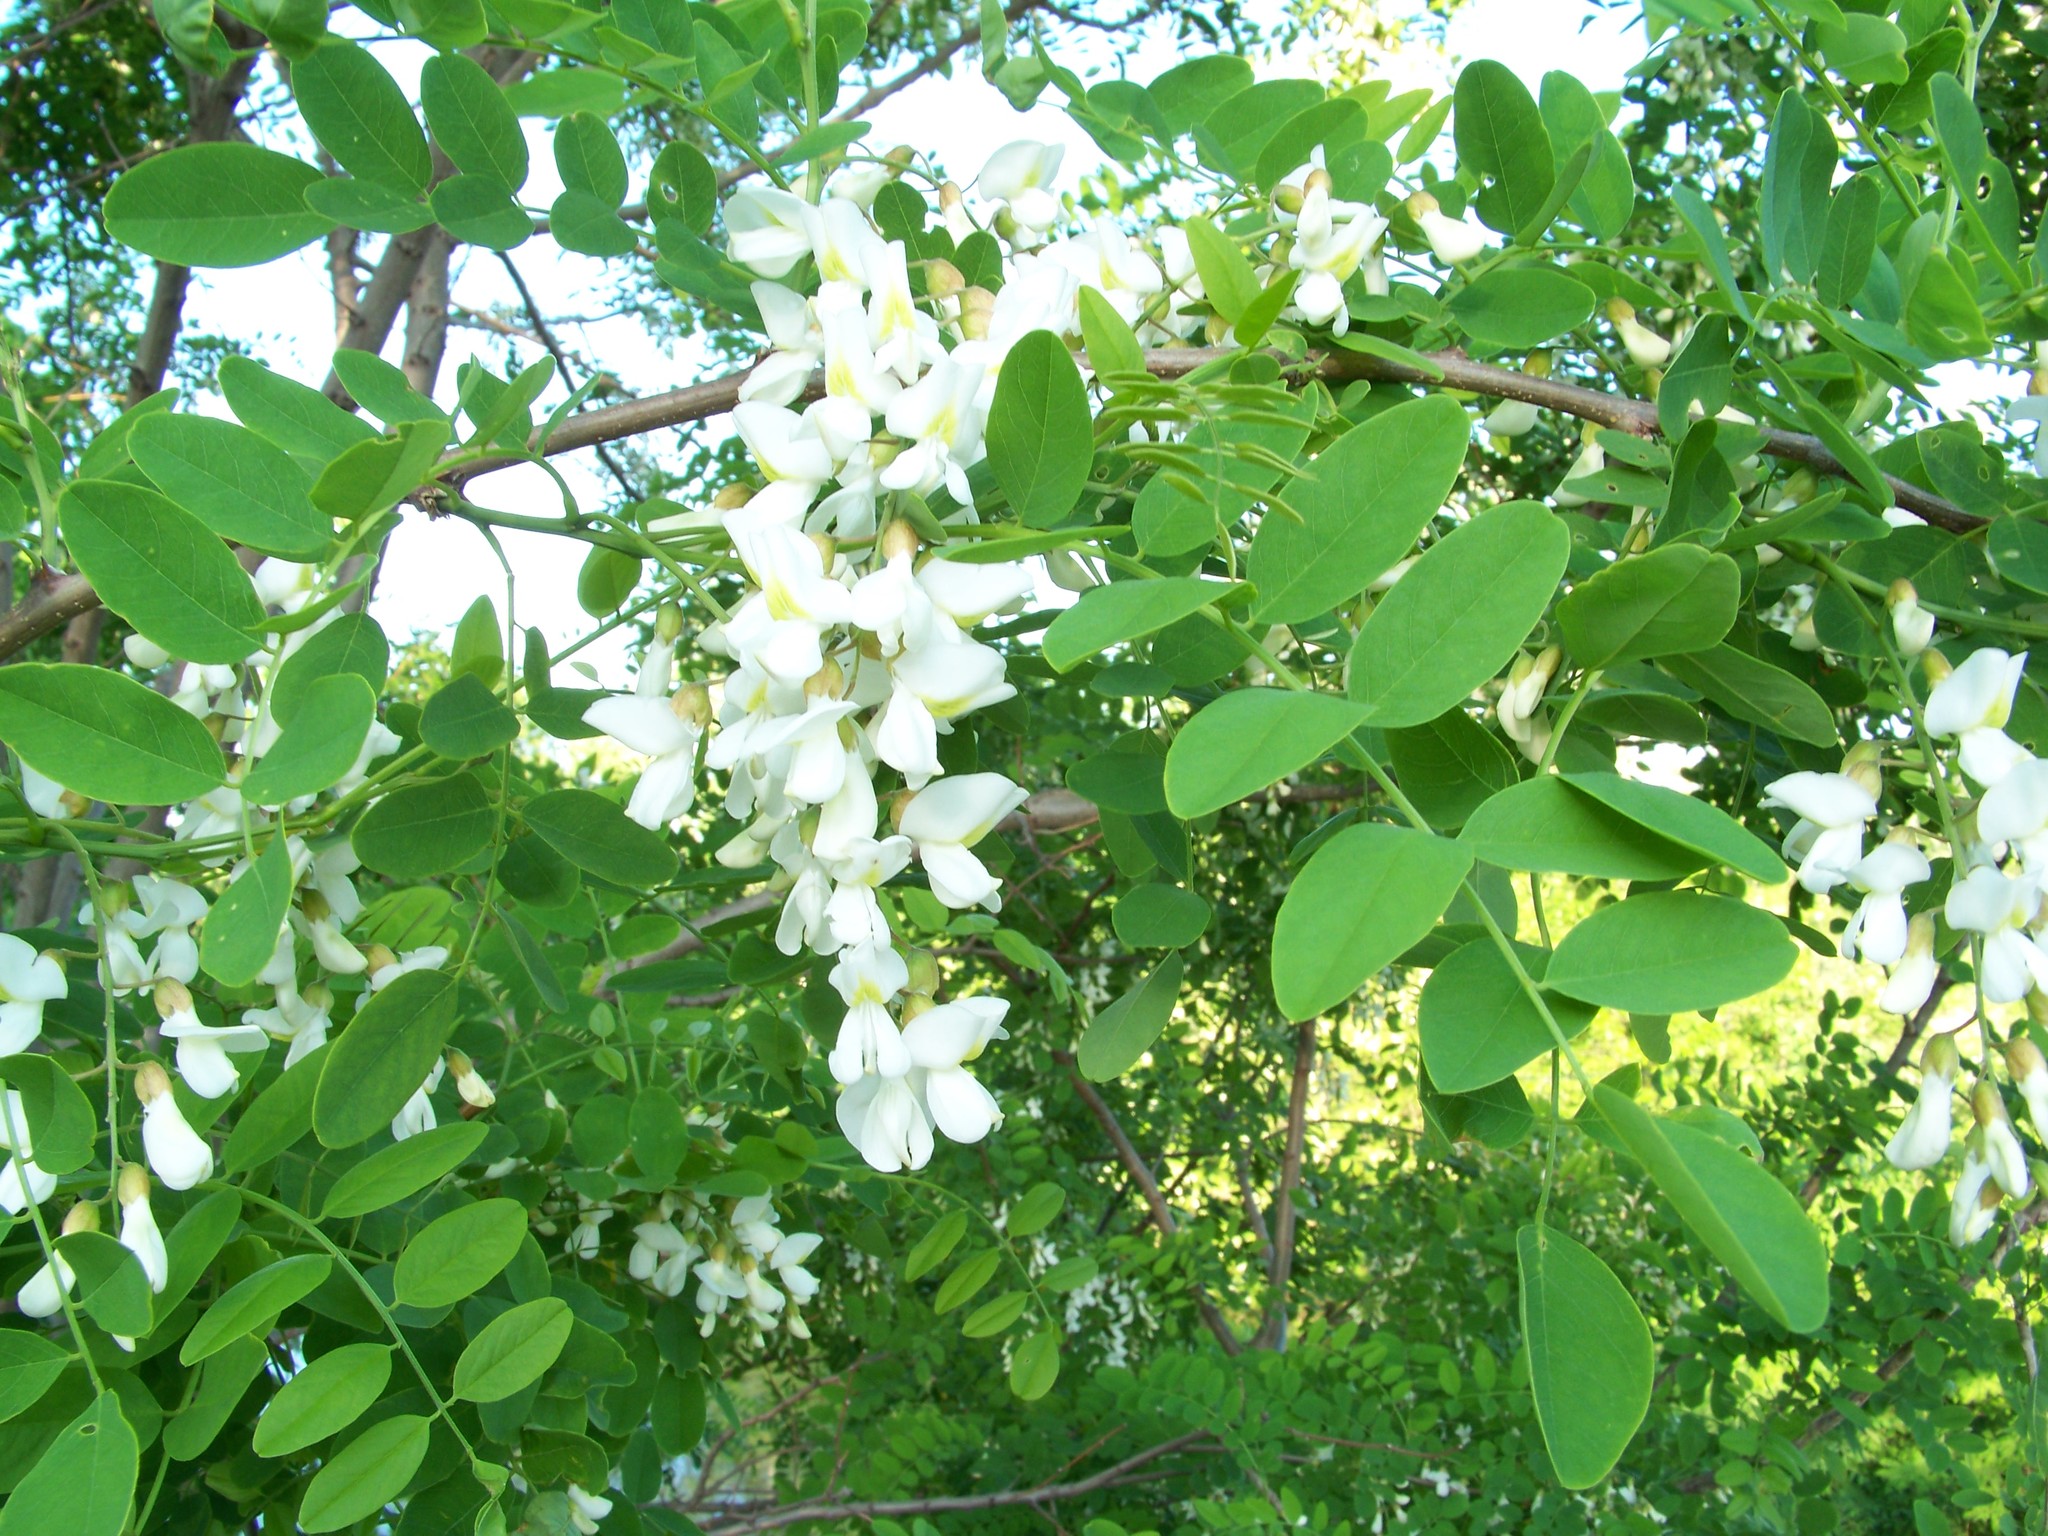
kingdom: Plantae
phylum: Tracheophyta
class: Magnoliopsida
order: Fabales
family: Fabaceae
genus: Robinia
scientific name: Robinia pseudoacacia
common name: Black locust
